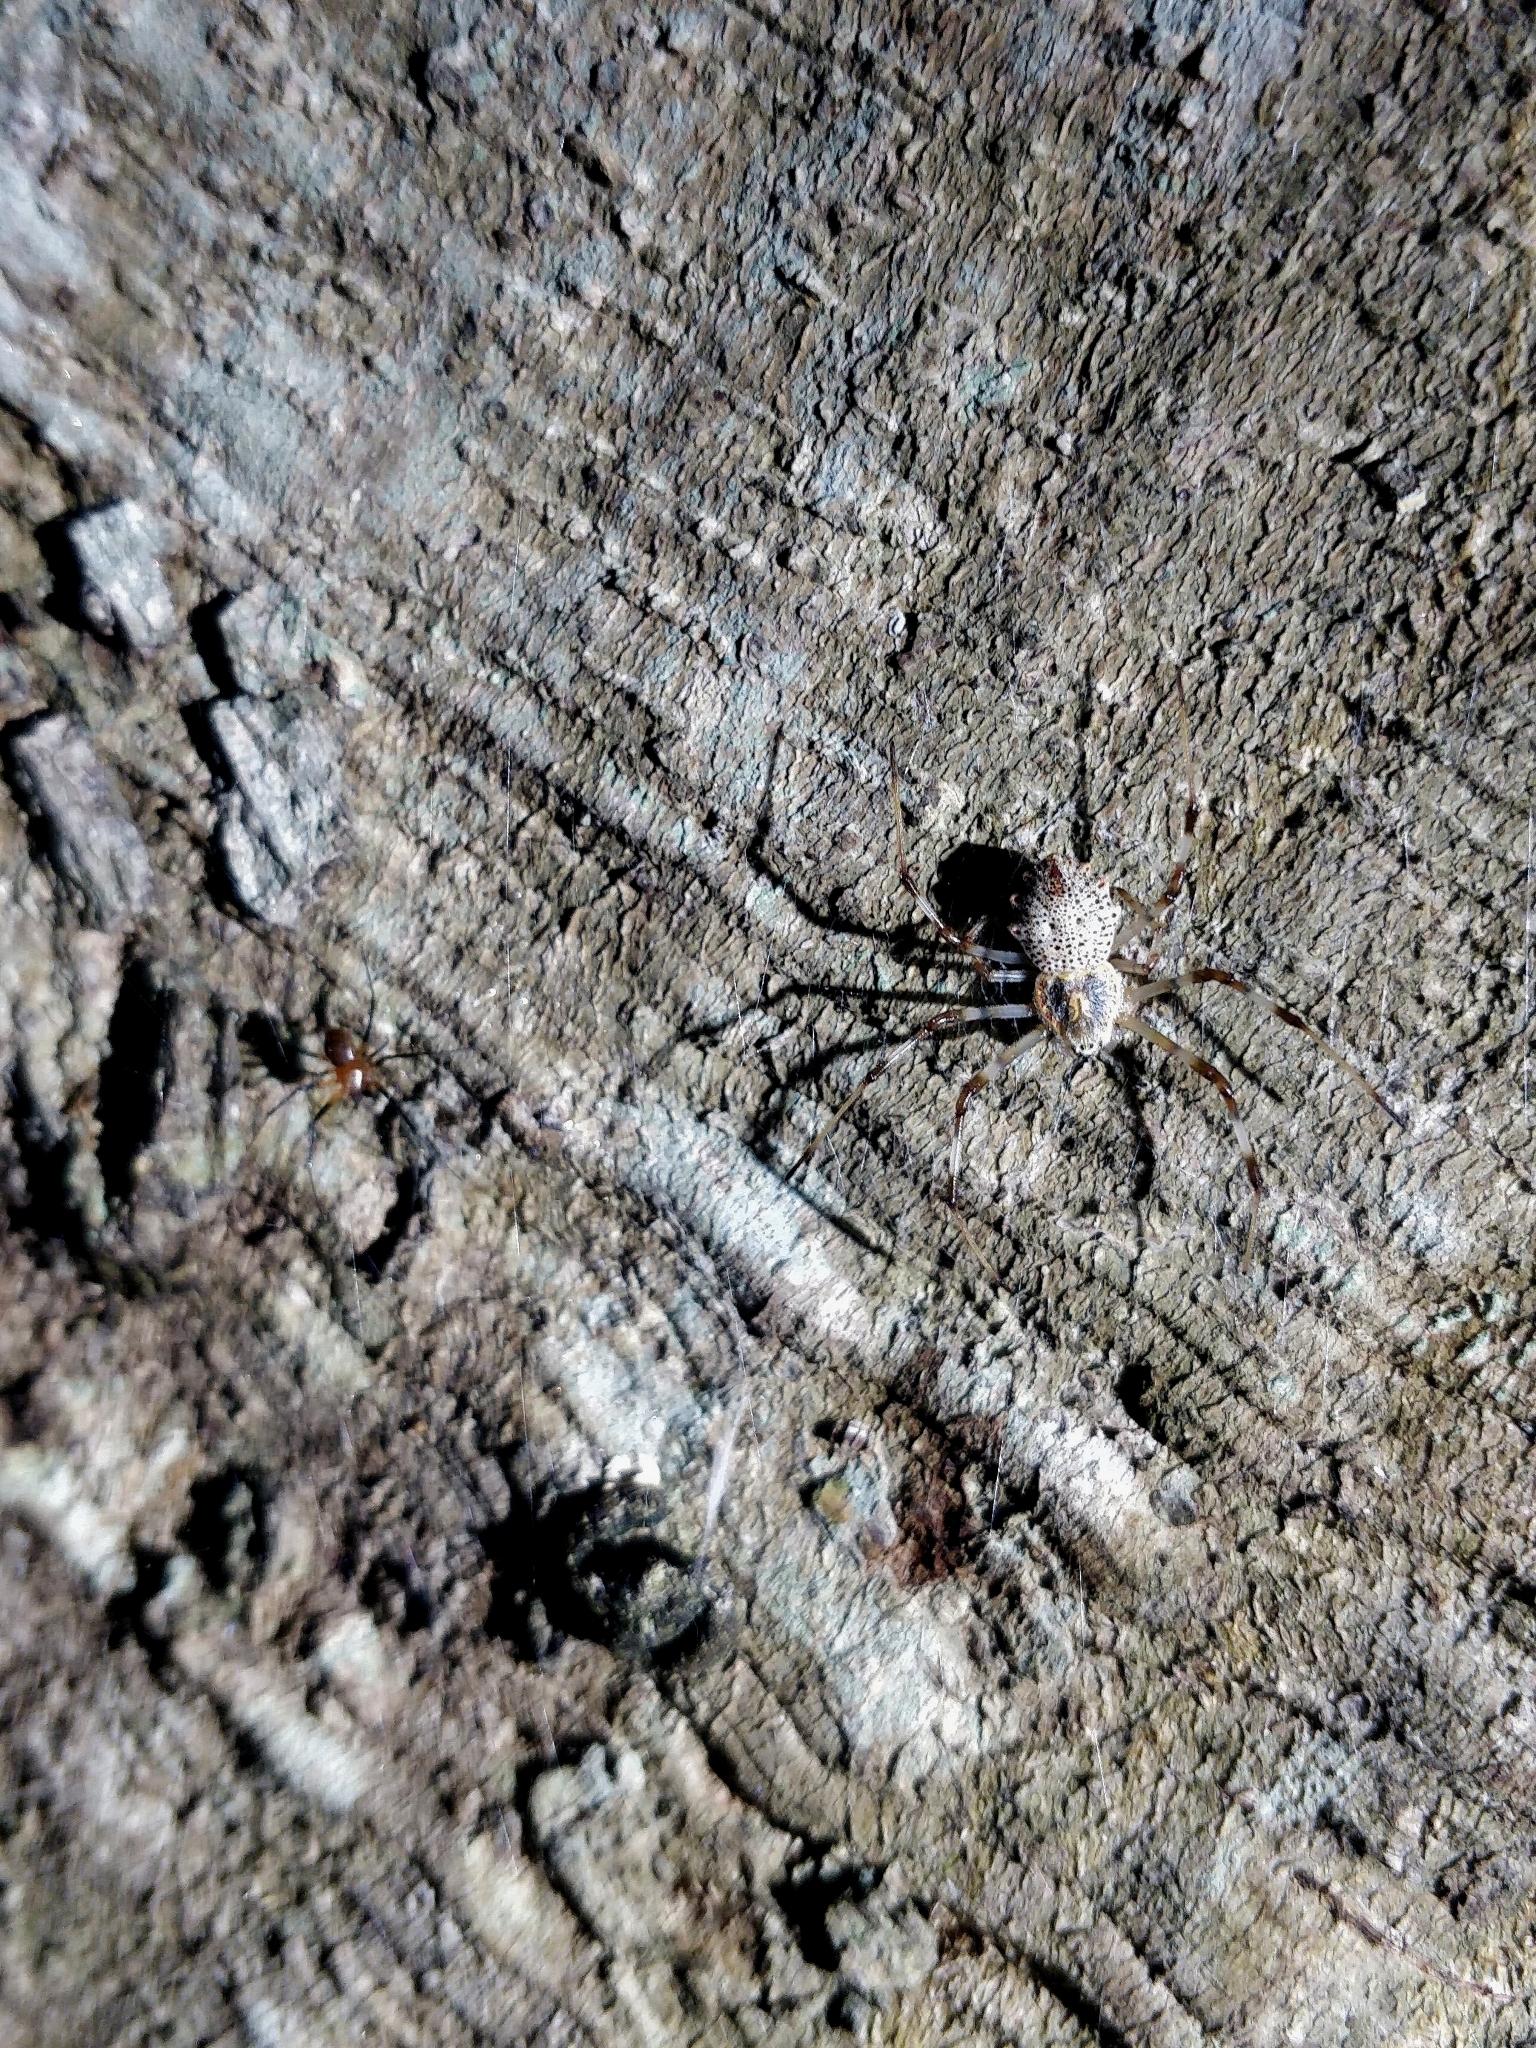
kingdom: Animalia
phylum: Arthropoda
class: Arachnida
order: Araneae
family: Araneidae
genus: Herennia
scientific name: Herennia multipuncta
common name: Spotted coin spider
